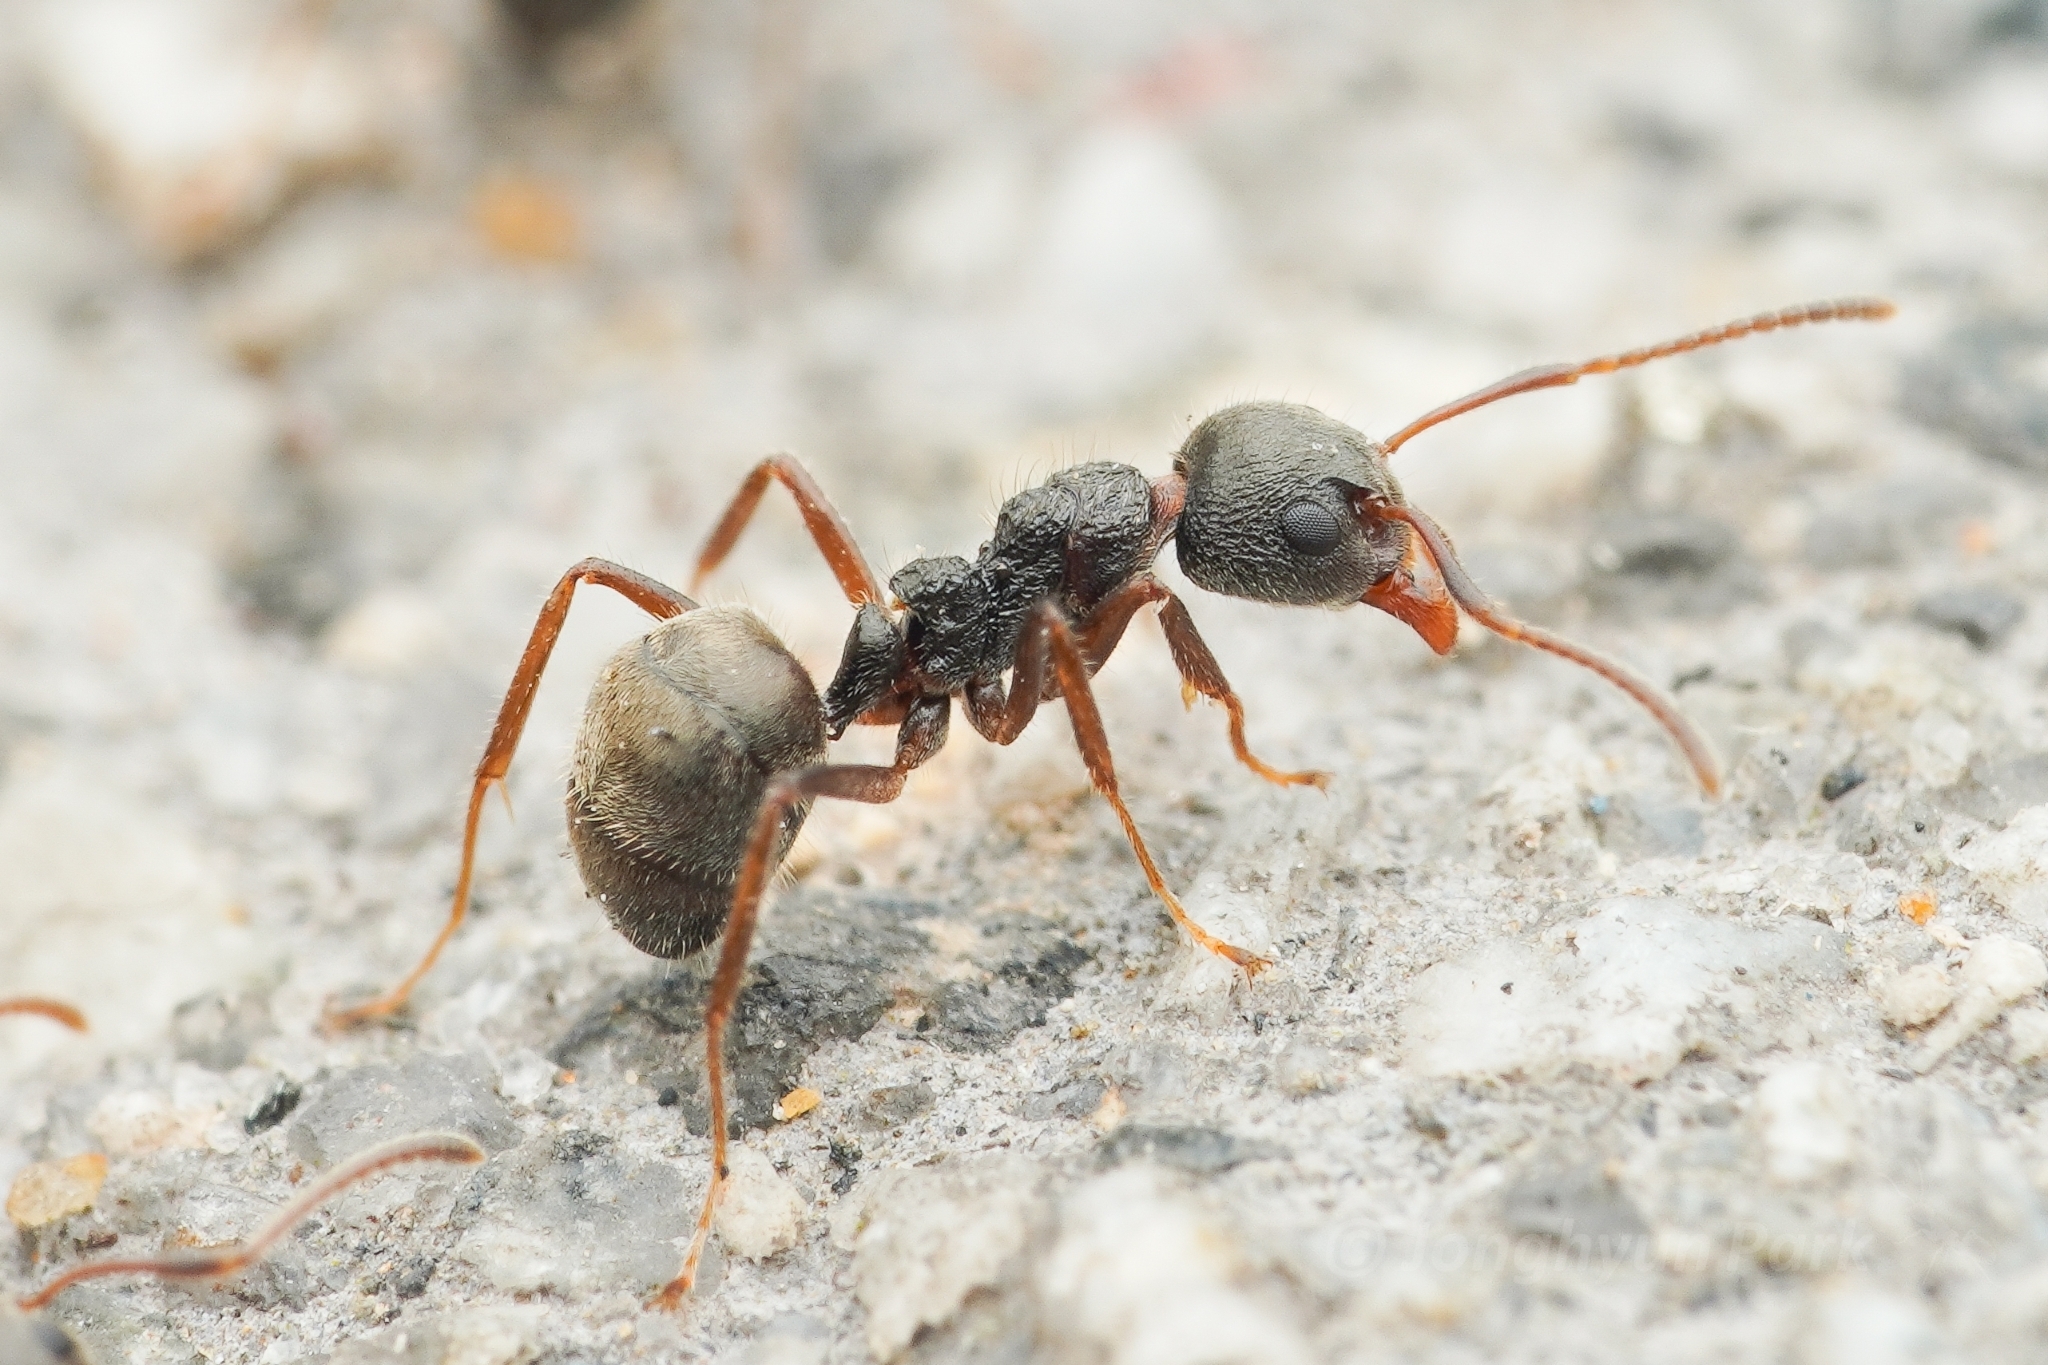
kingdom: Animalia
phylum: Arthropoda
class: Insecta
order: Hymenoptera
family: Formicidae
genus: Dolichoderus
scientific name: Dolichoderus thoracicus
